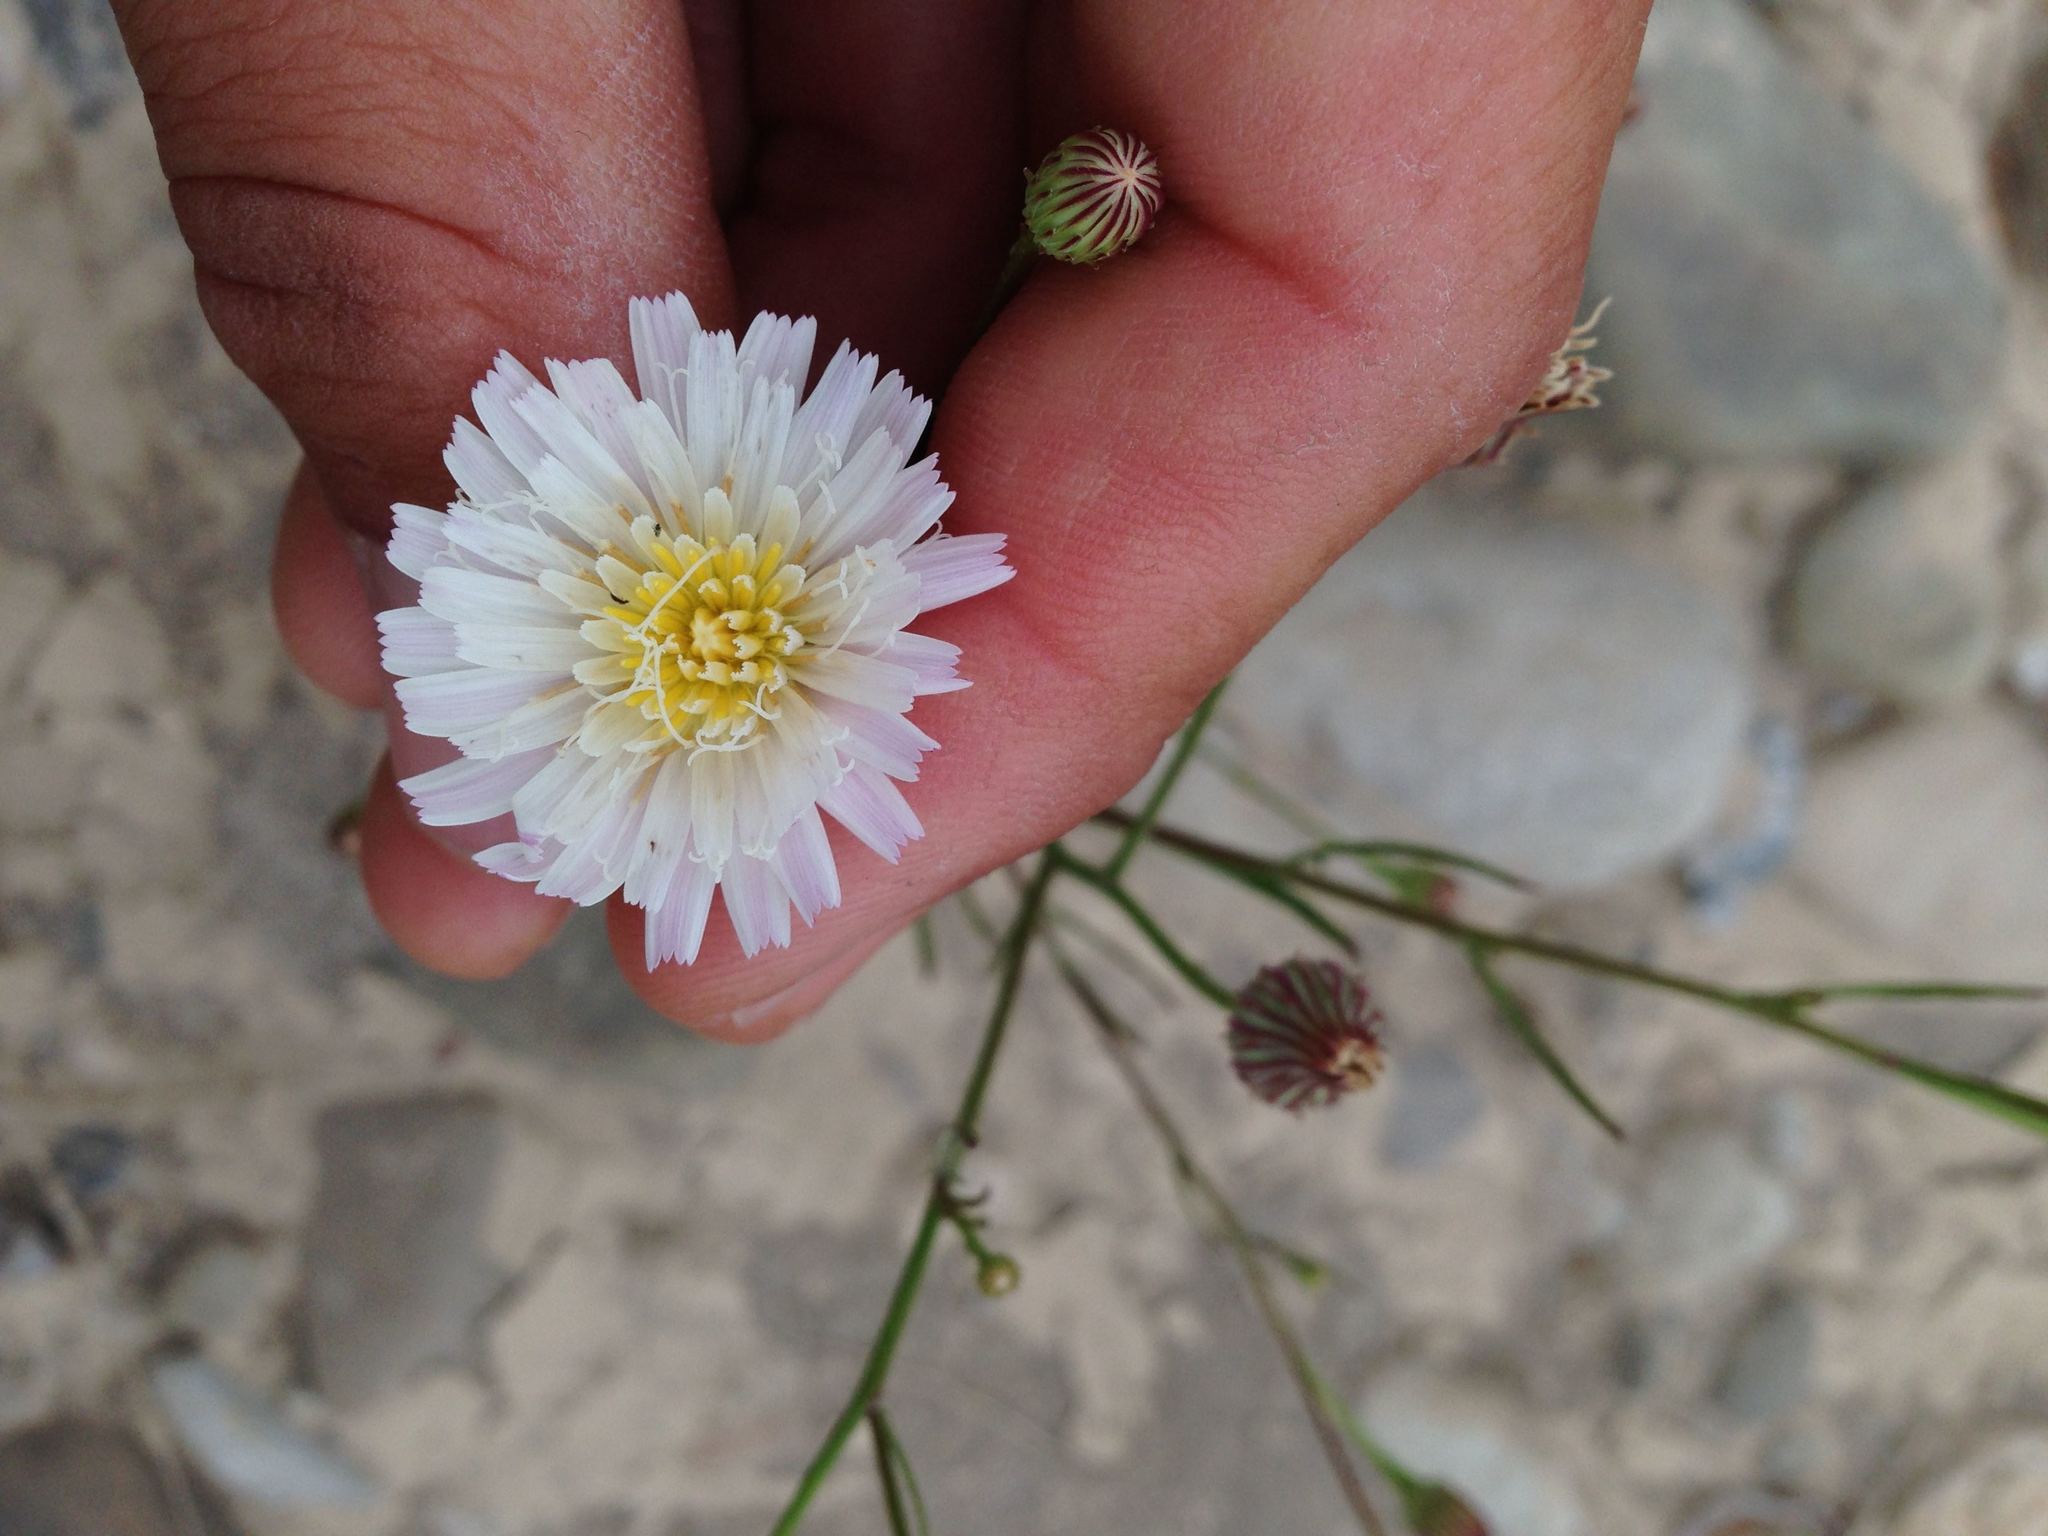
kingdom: Plantae
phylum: Tracheophyta
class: Magnoliopsida
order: Asterales
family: Asteraceae
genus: Malacothrix
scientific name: Malacothrix saxatilis
